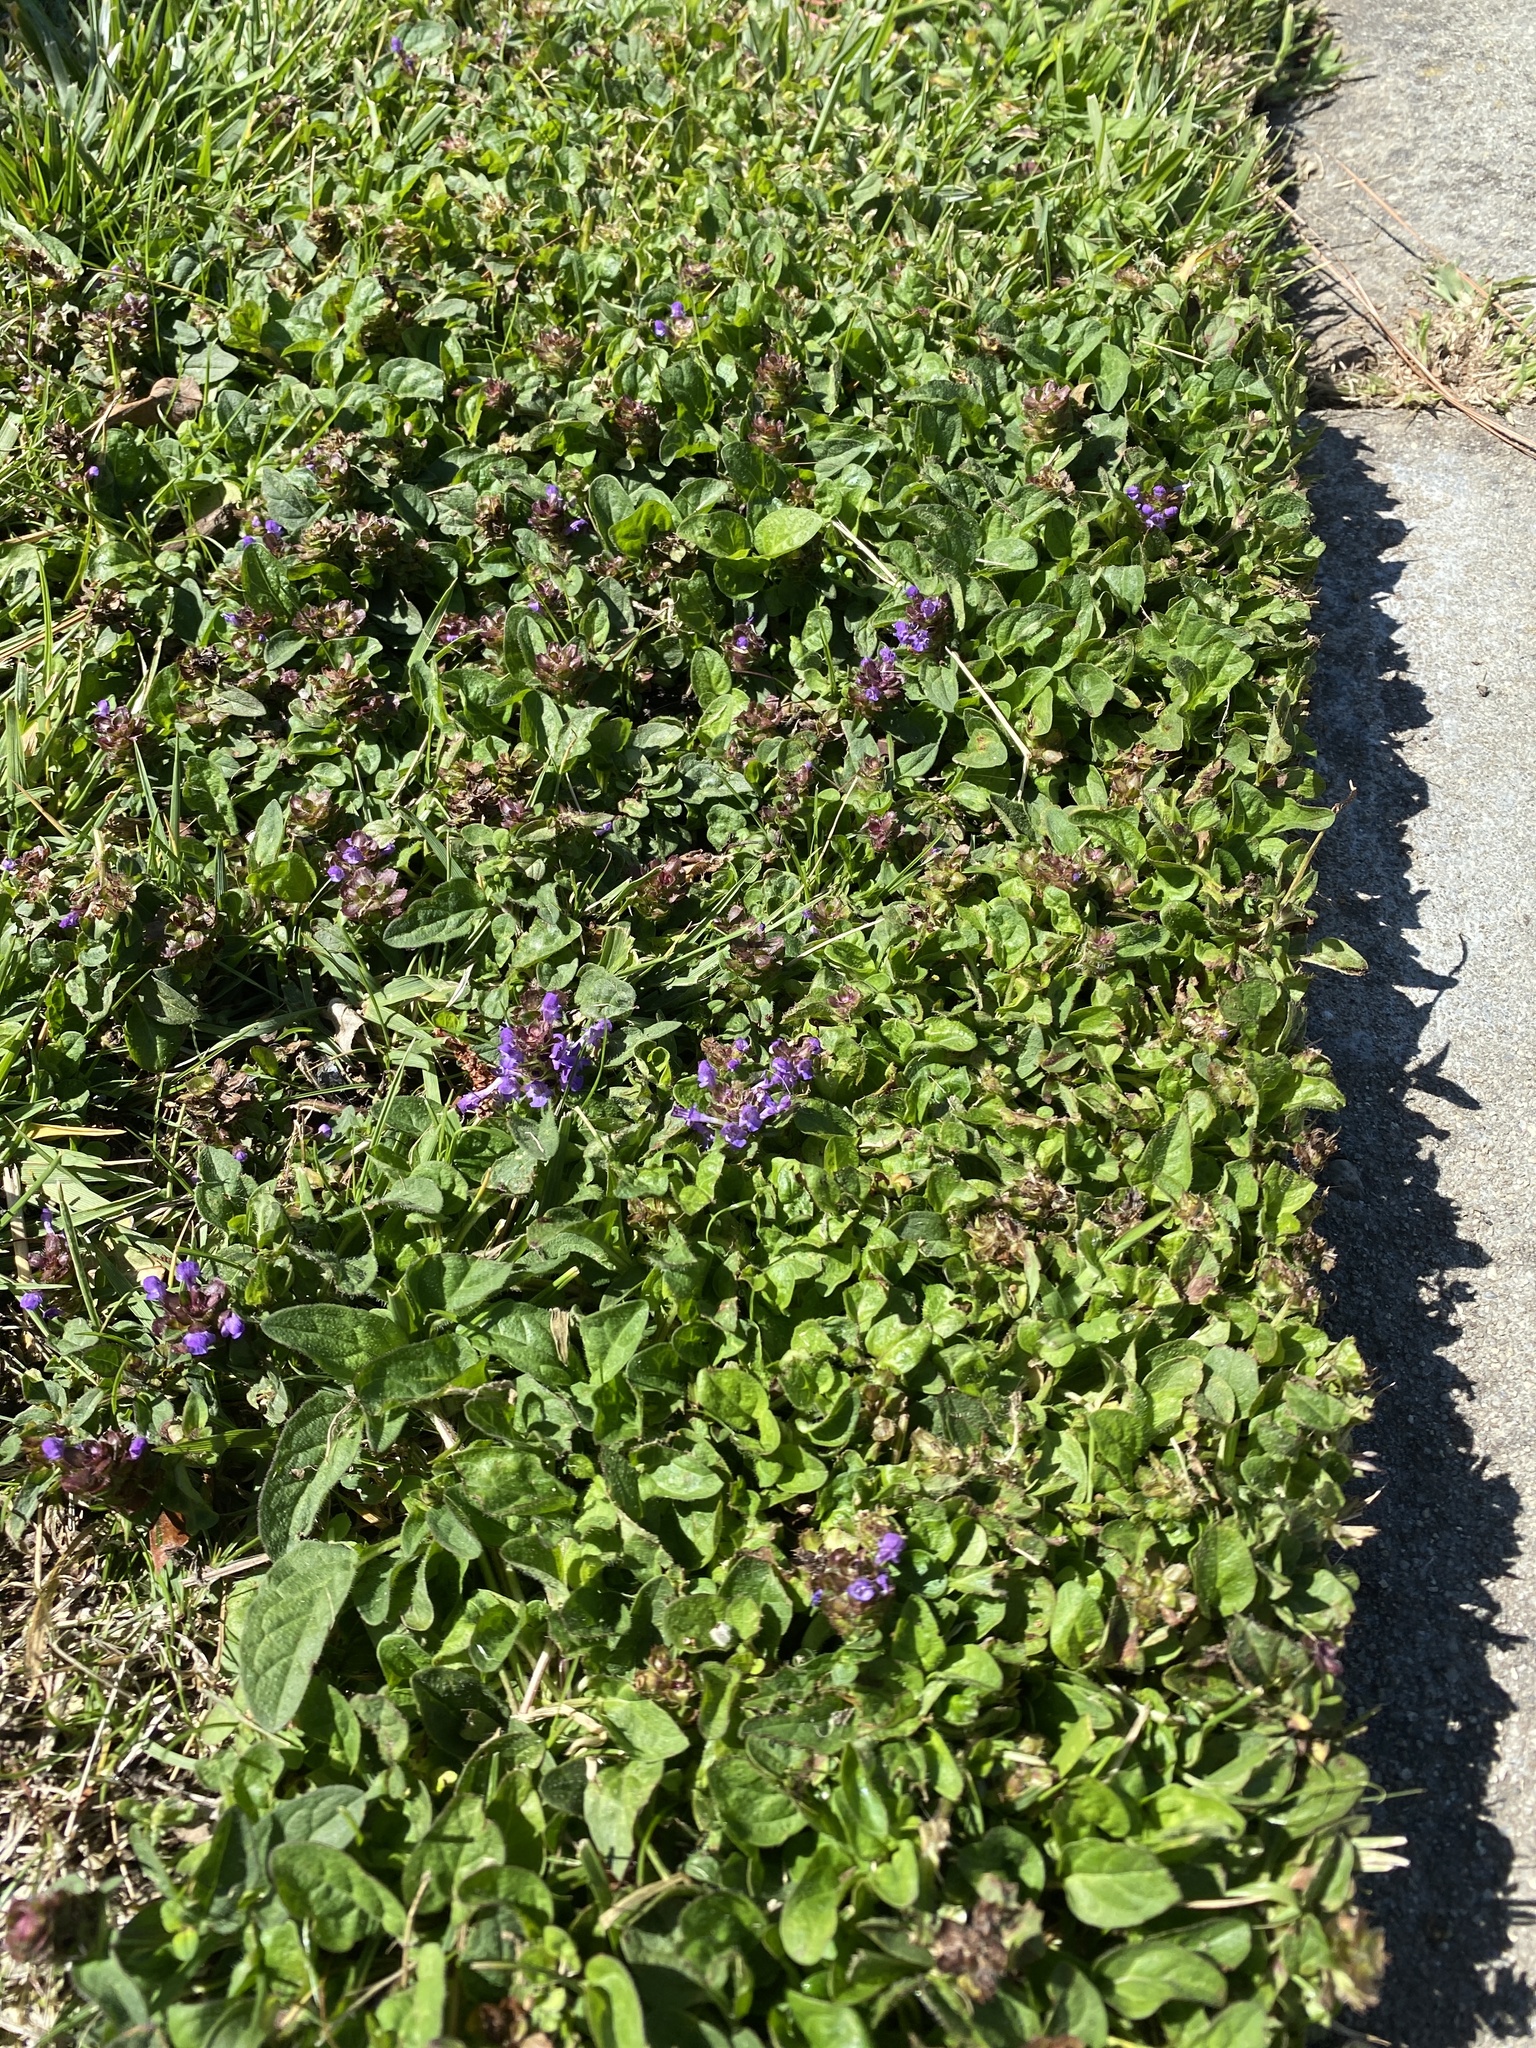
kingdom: Plantae
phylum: Tracheophyta
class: Magnoliopsida
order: Lamiales
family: Lamiaceae
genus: Prunella
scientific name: Prunella vulgaris
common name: Heal-all
